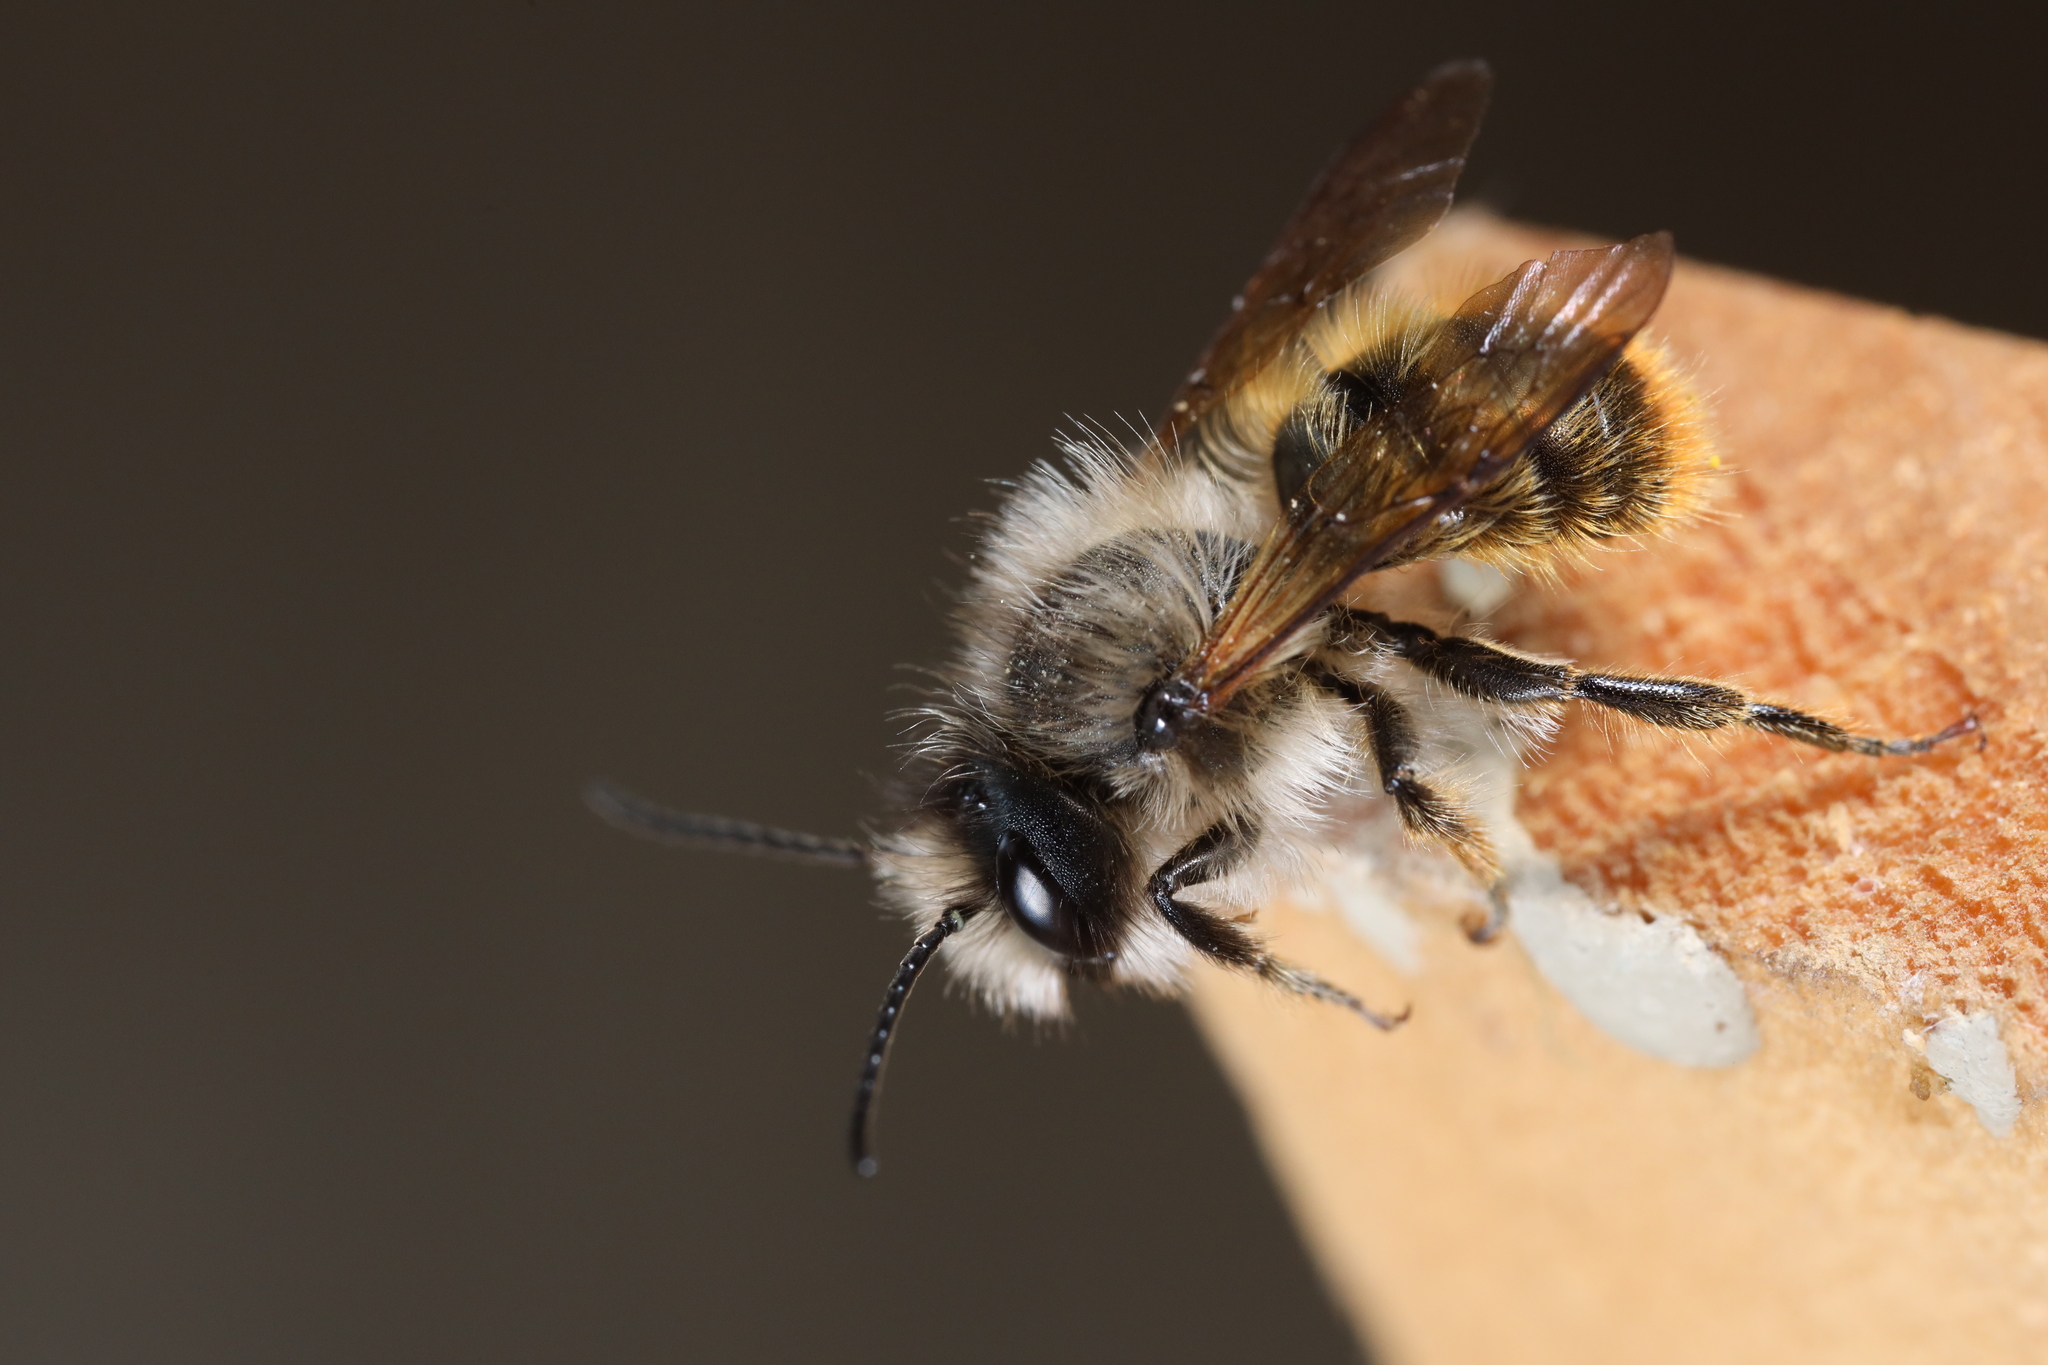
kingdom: Animalia
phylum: Arthropoda
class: Insecta
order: Hymenoptera
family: Megachilidae
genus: Osmia
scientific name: Osmia bicornis
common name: Red mason bee
